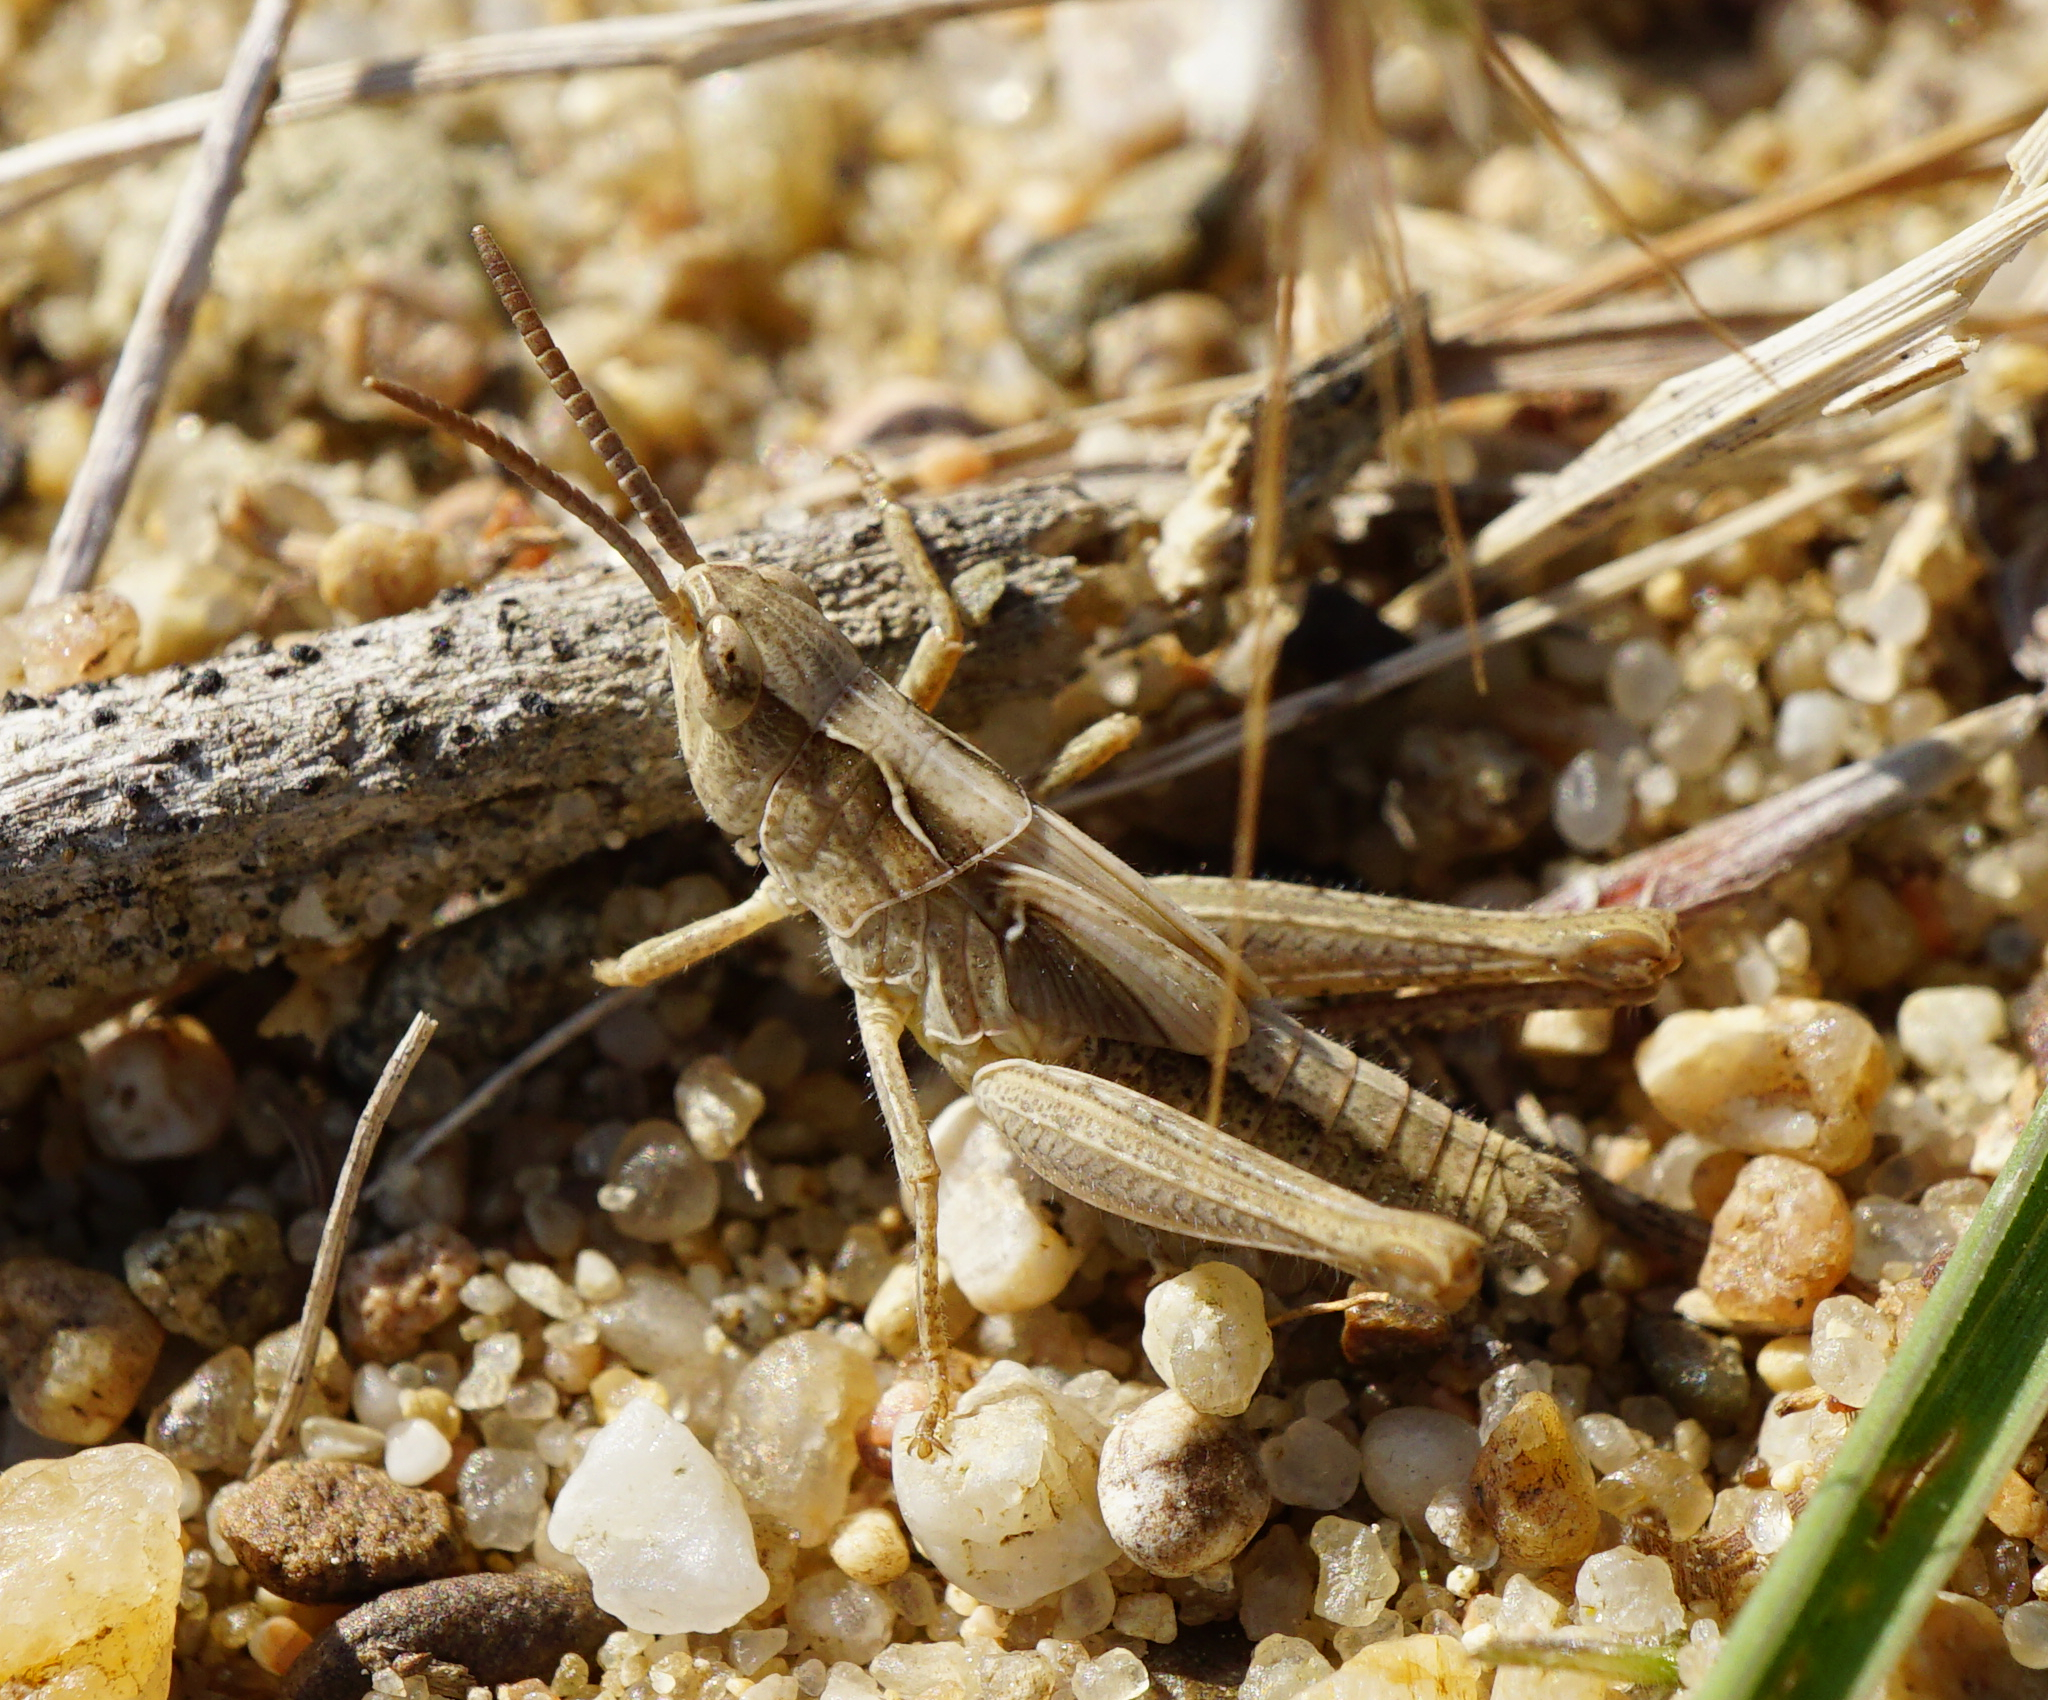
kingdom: Animalia
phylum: Arthropoda
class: Insecta
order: Orthoptera
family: Acrididae
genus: Glyptobothrus
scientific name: Glyptobothrus
